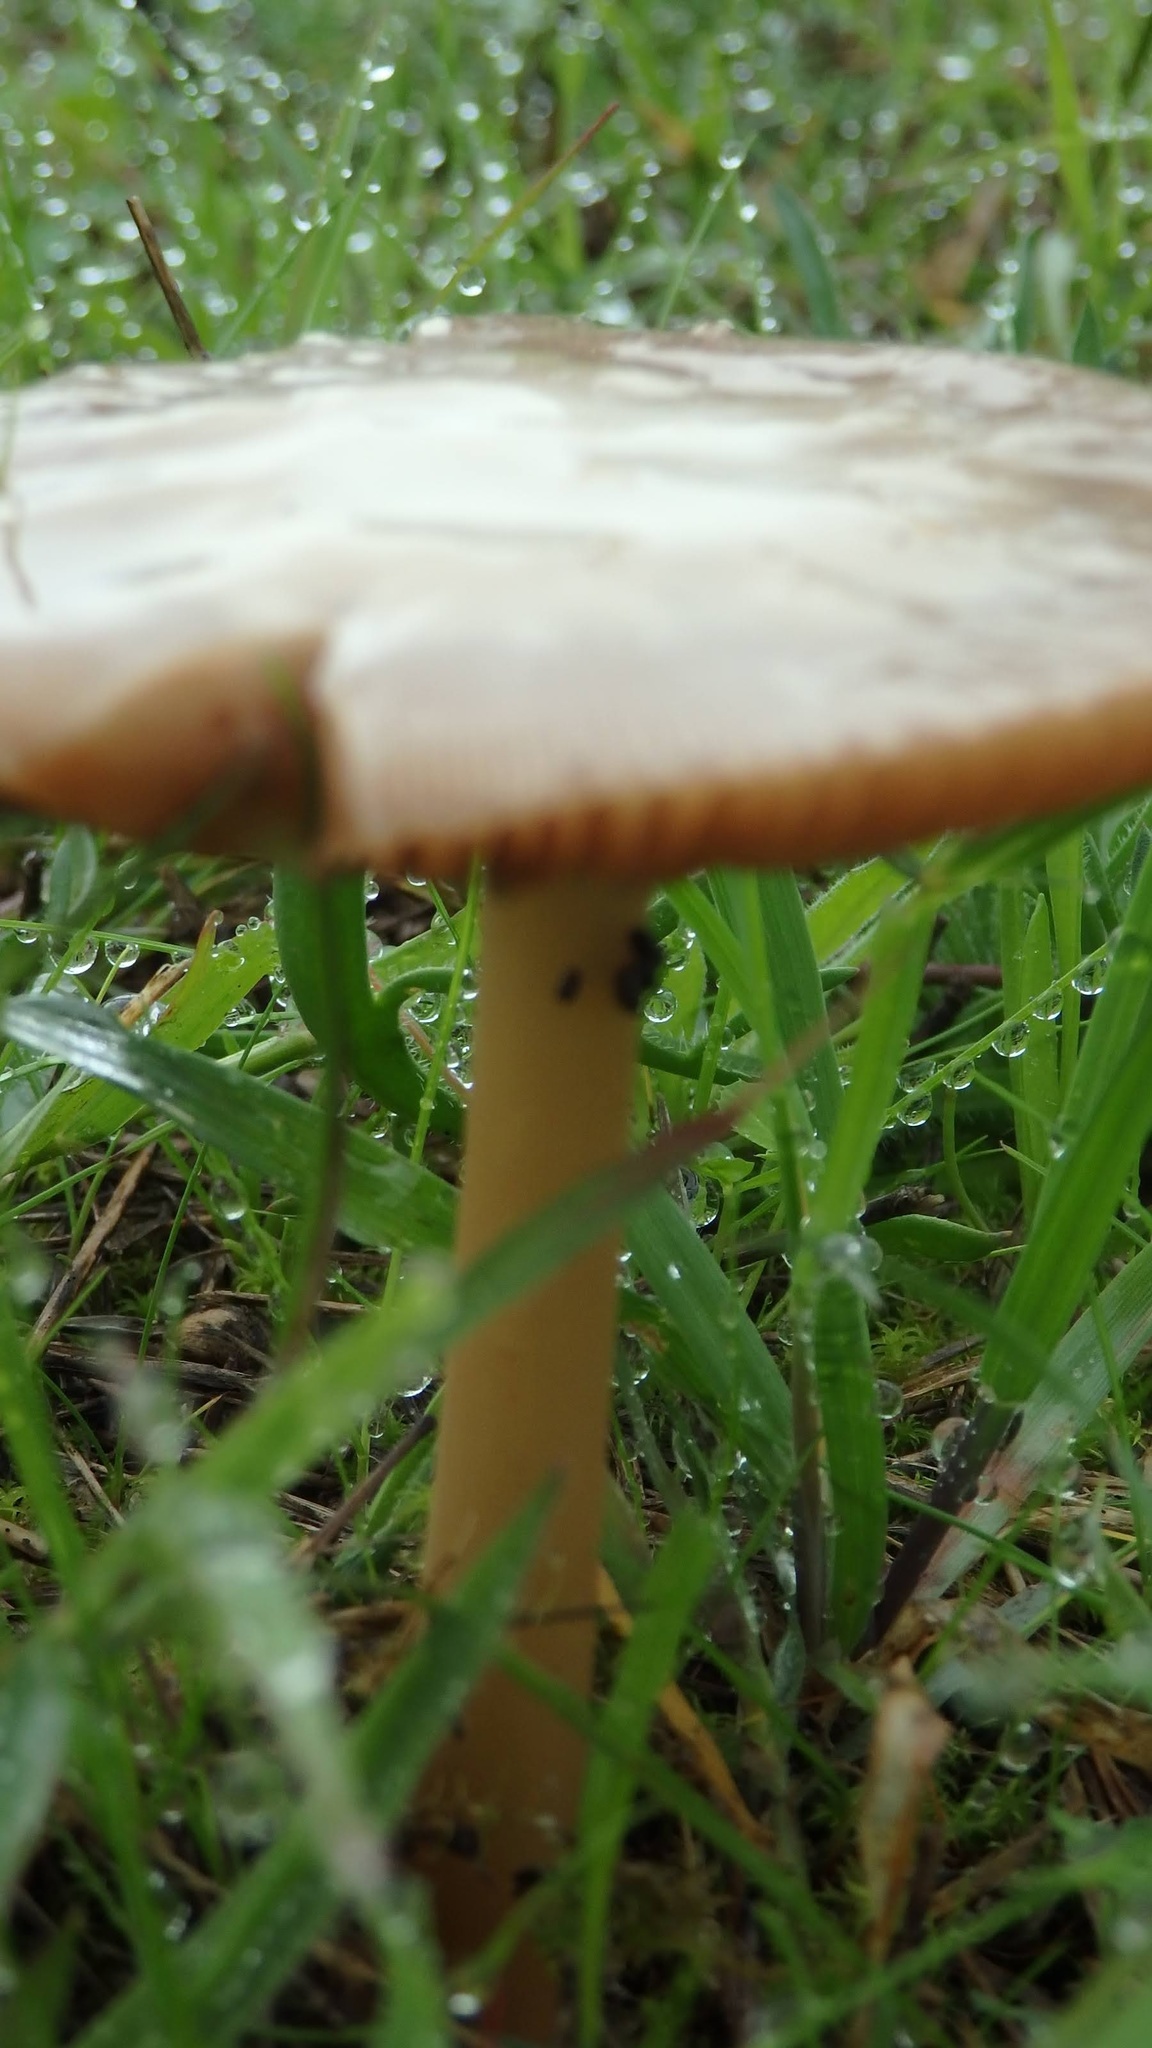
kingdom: Fungi
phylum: Basidiomycota
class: Agaricomycetes
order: Agaricales
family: Pluteaceae
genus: Volvopluteus
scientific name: Volvopluteus gloiocephalus
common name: Stubble rosegill
